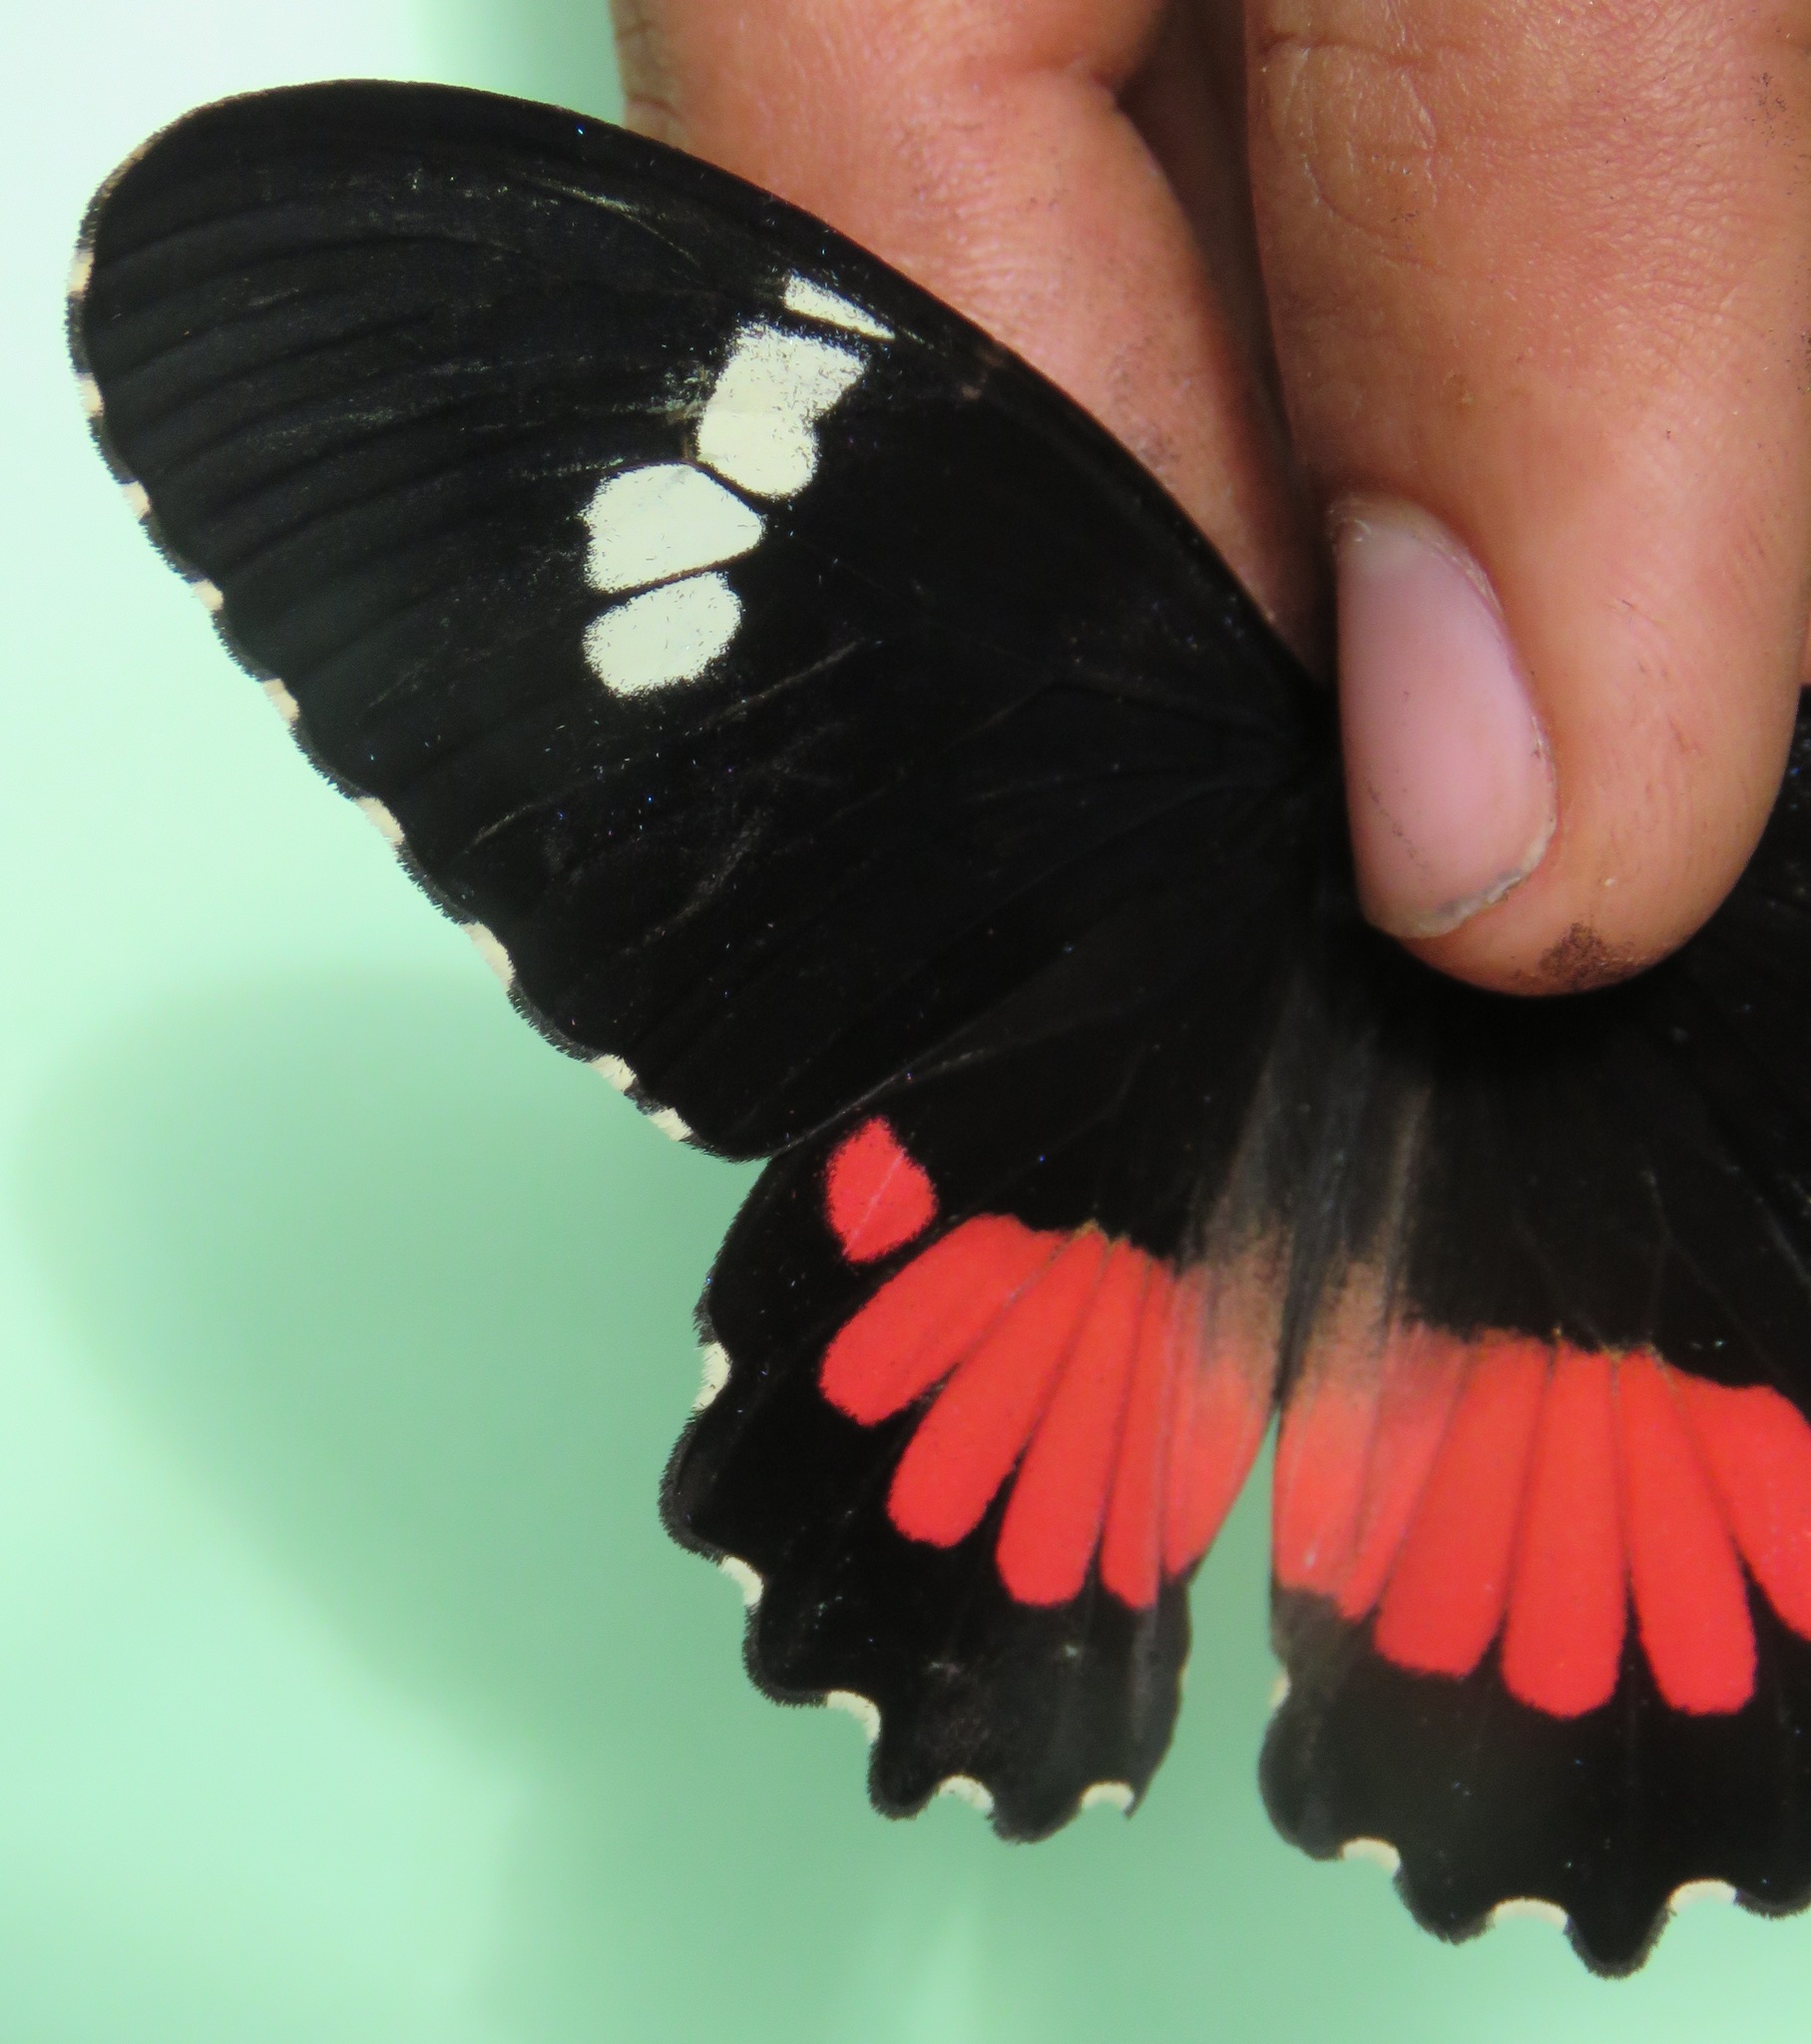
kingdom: Animalia
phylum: Arthropoda
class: Insecta
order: Lepidoptera
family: Papilionidae
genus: Parides
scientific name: Parides iphidamas
